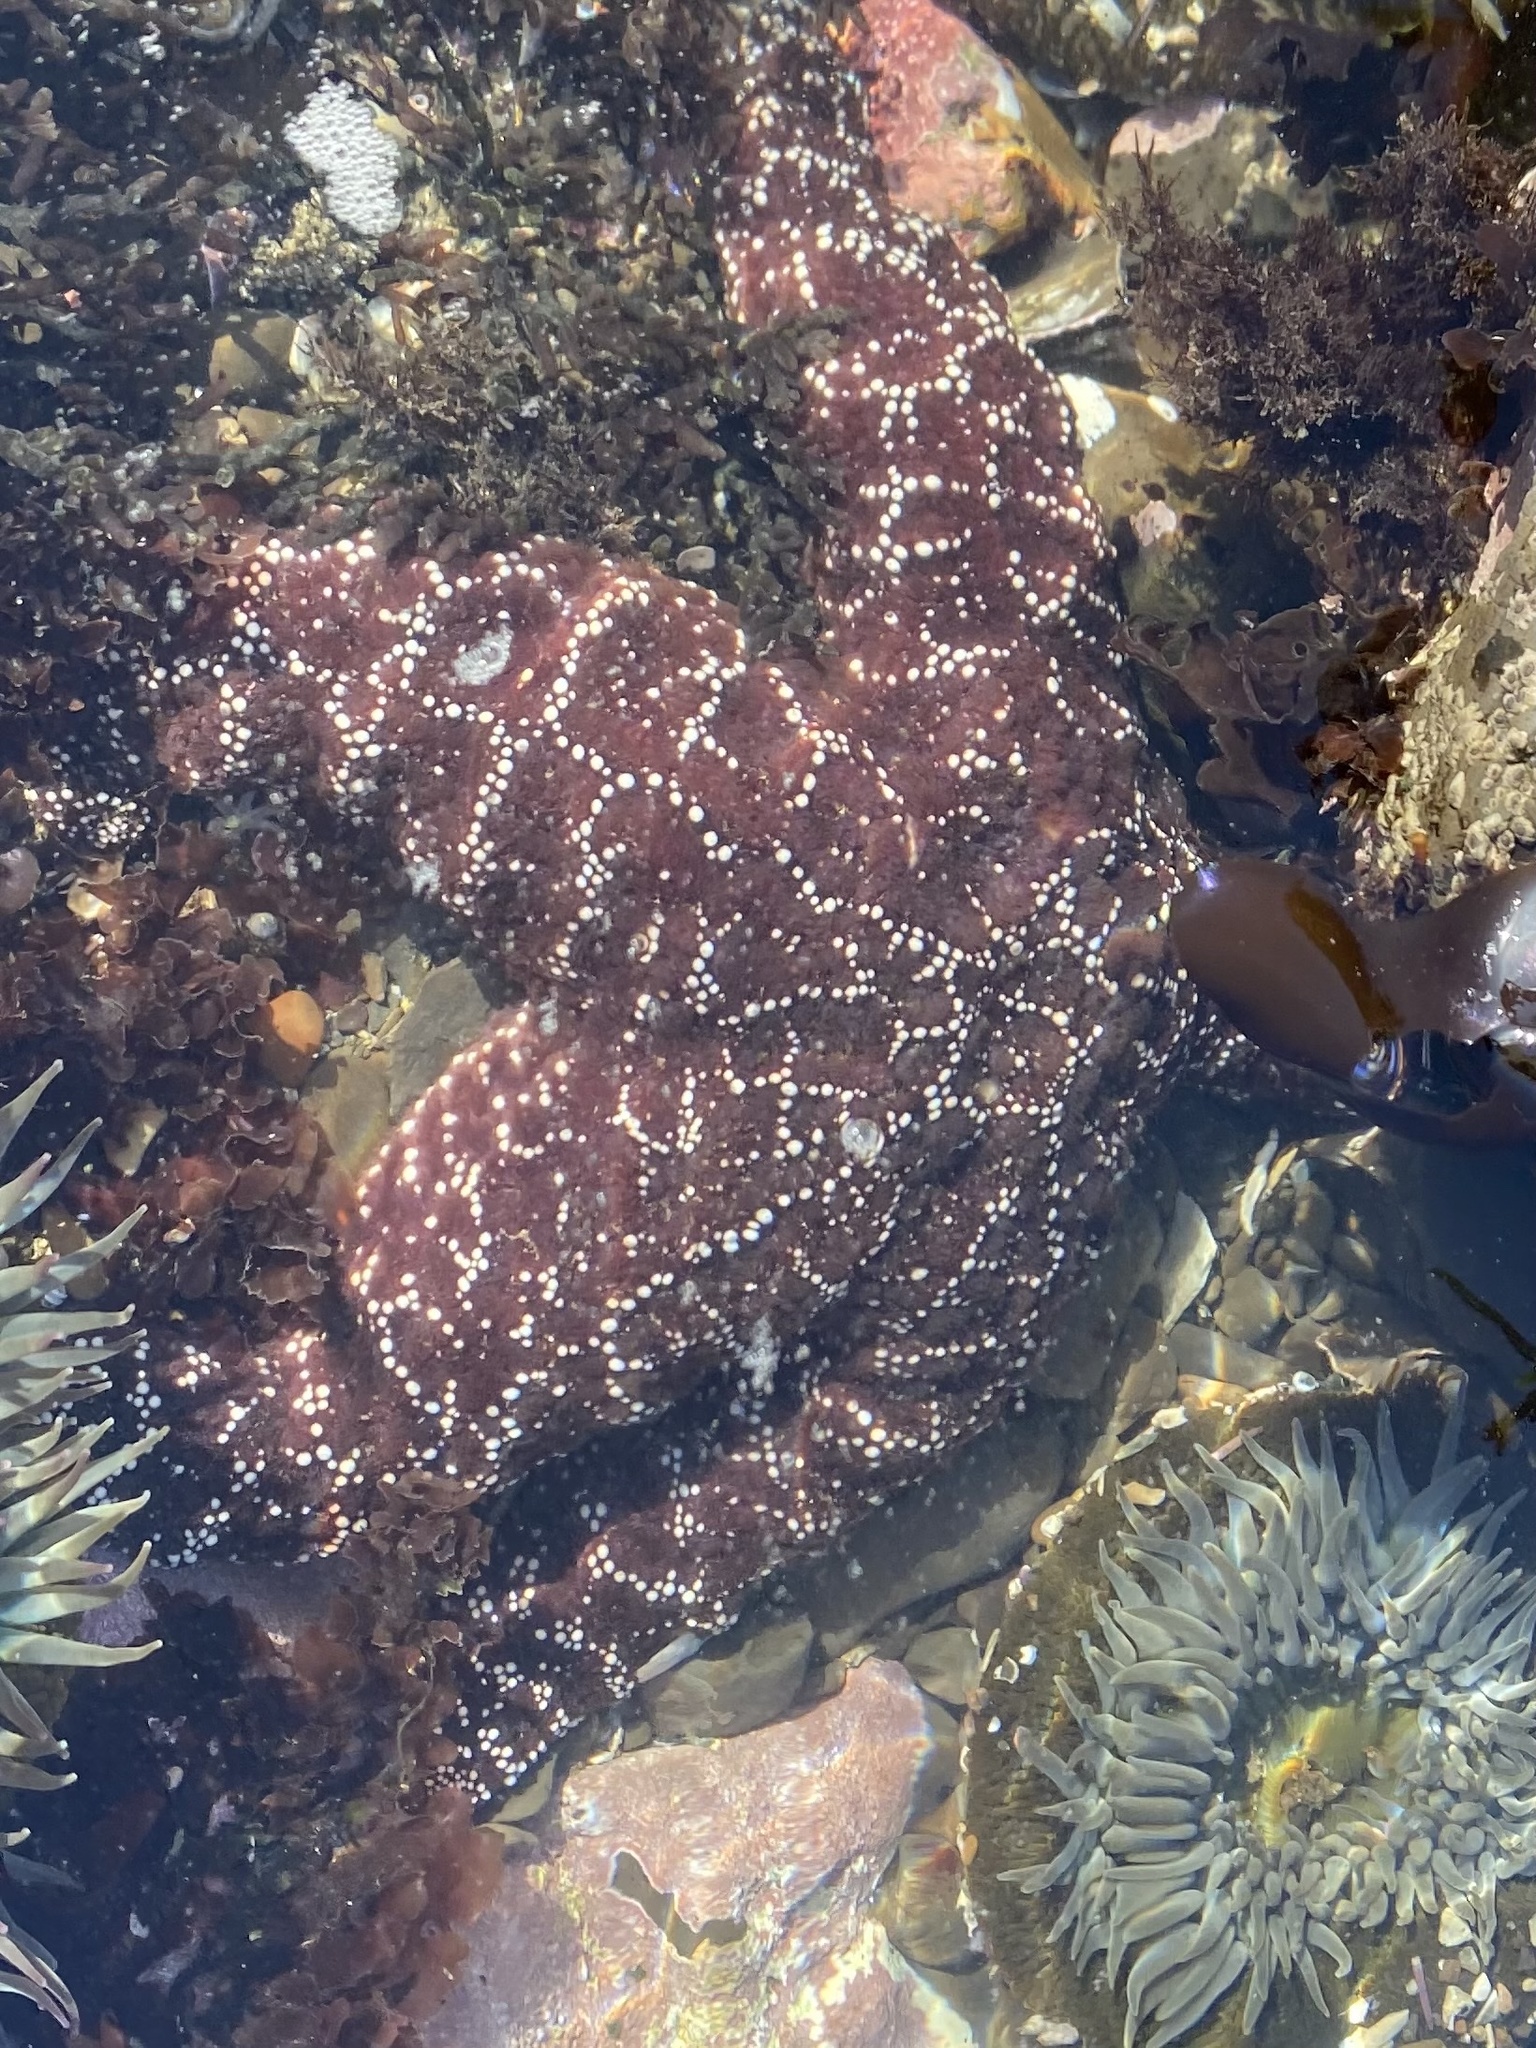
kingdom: Animalia
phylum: Echinodermata
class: Asteroidea
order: Forcipulatida
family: Asteriidae
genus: Pisaster
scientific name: Pisaster ochraceus
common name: Ochre stars
